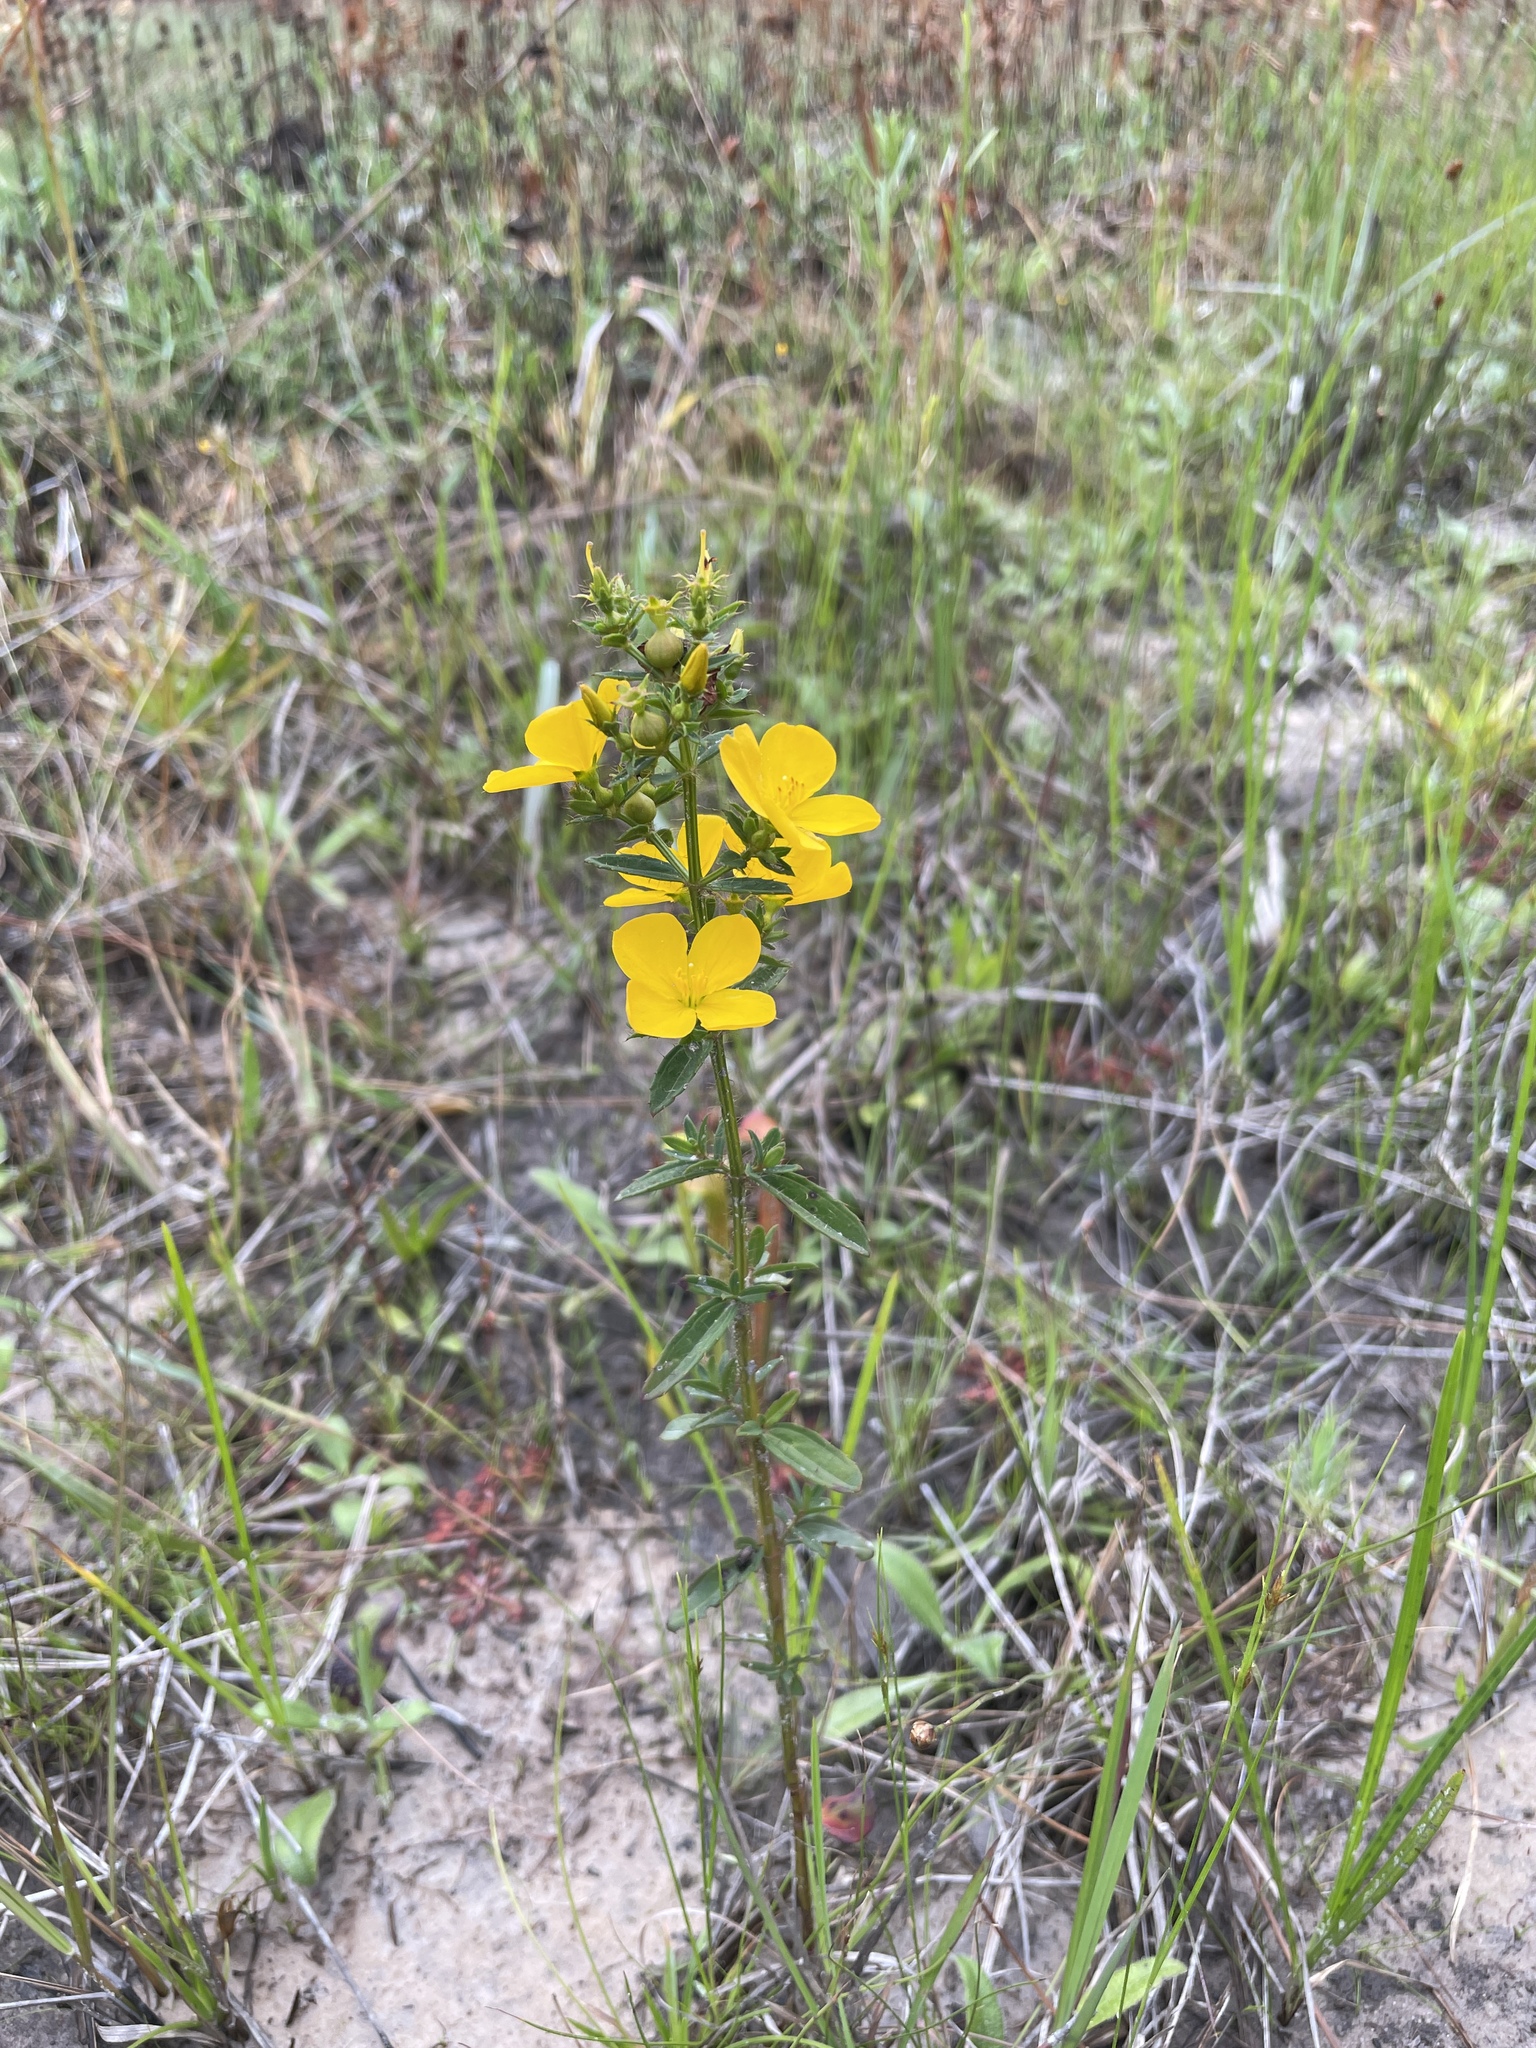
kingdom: Plantae
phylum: Tracheophyta
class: Magnoliopsida
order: Myrtales
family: Melastomataceae
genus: Rhexia
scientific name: Rhexia lutea
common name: Golden meadow-beauty
